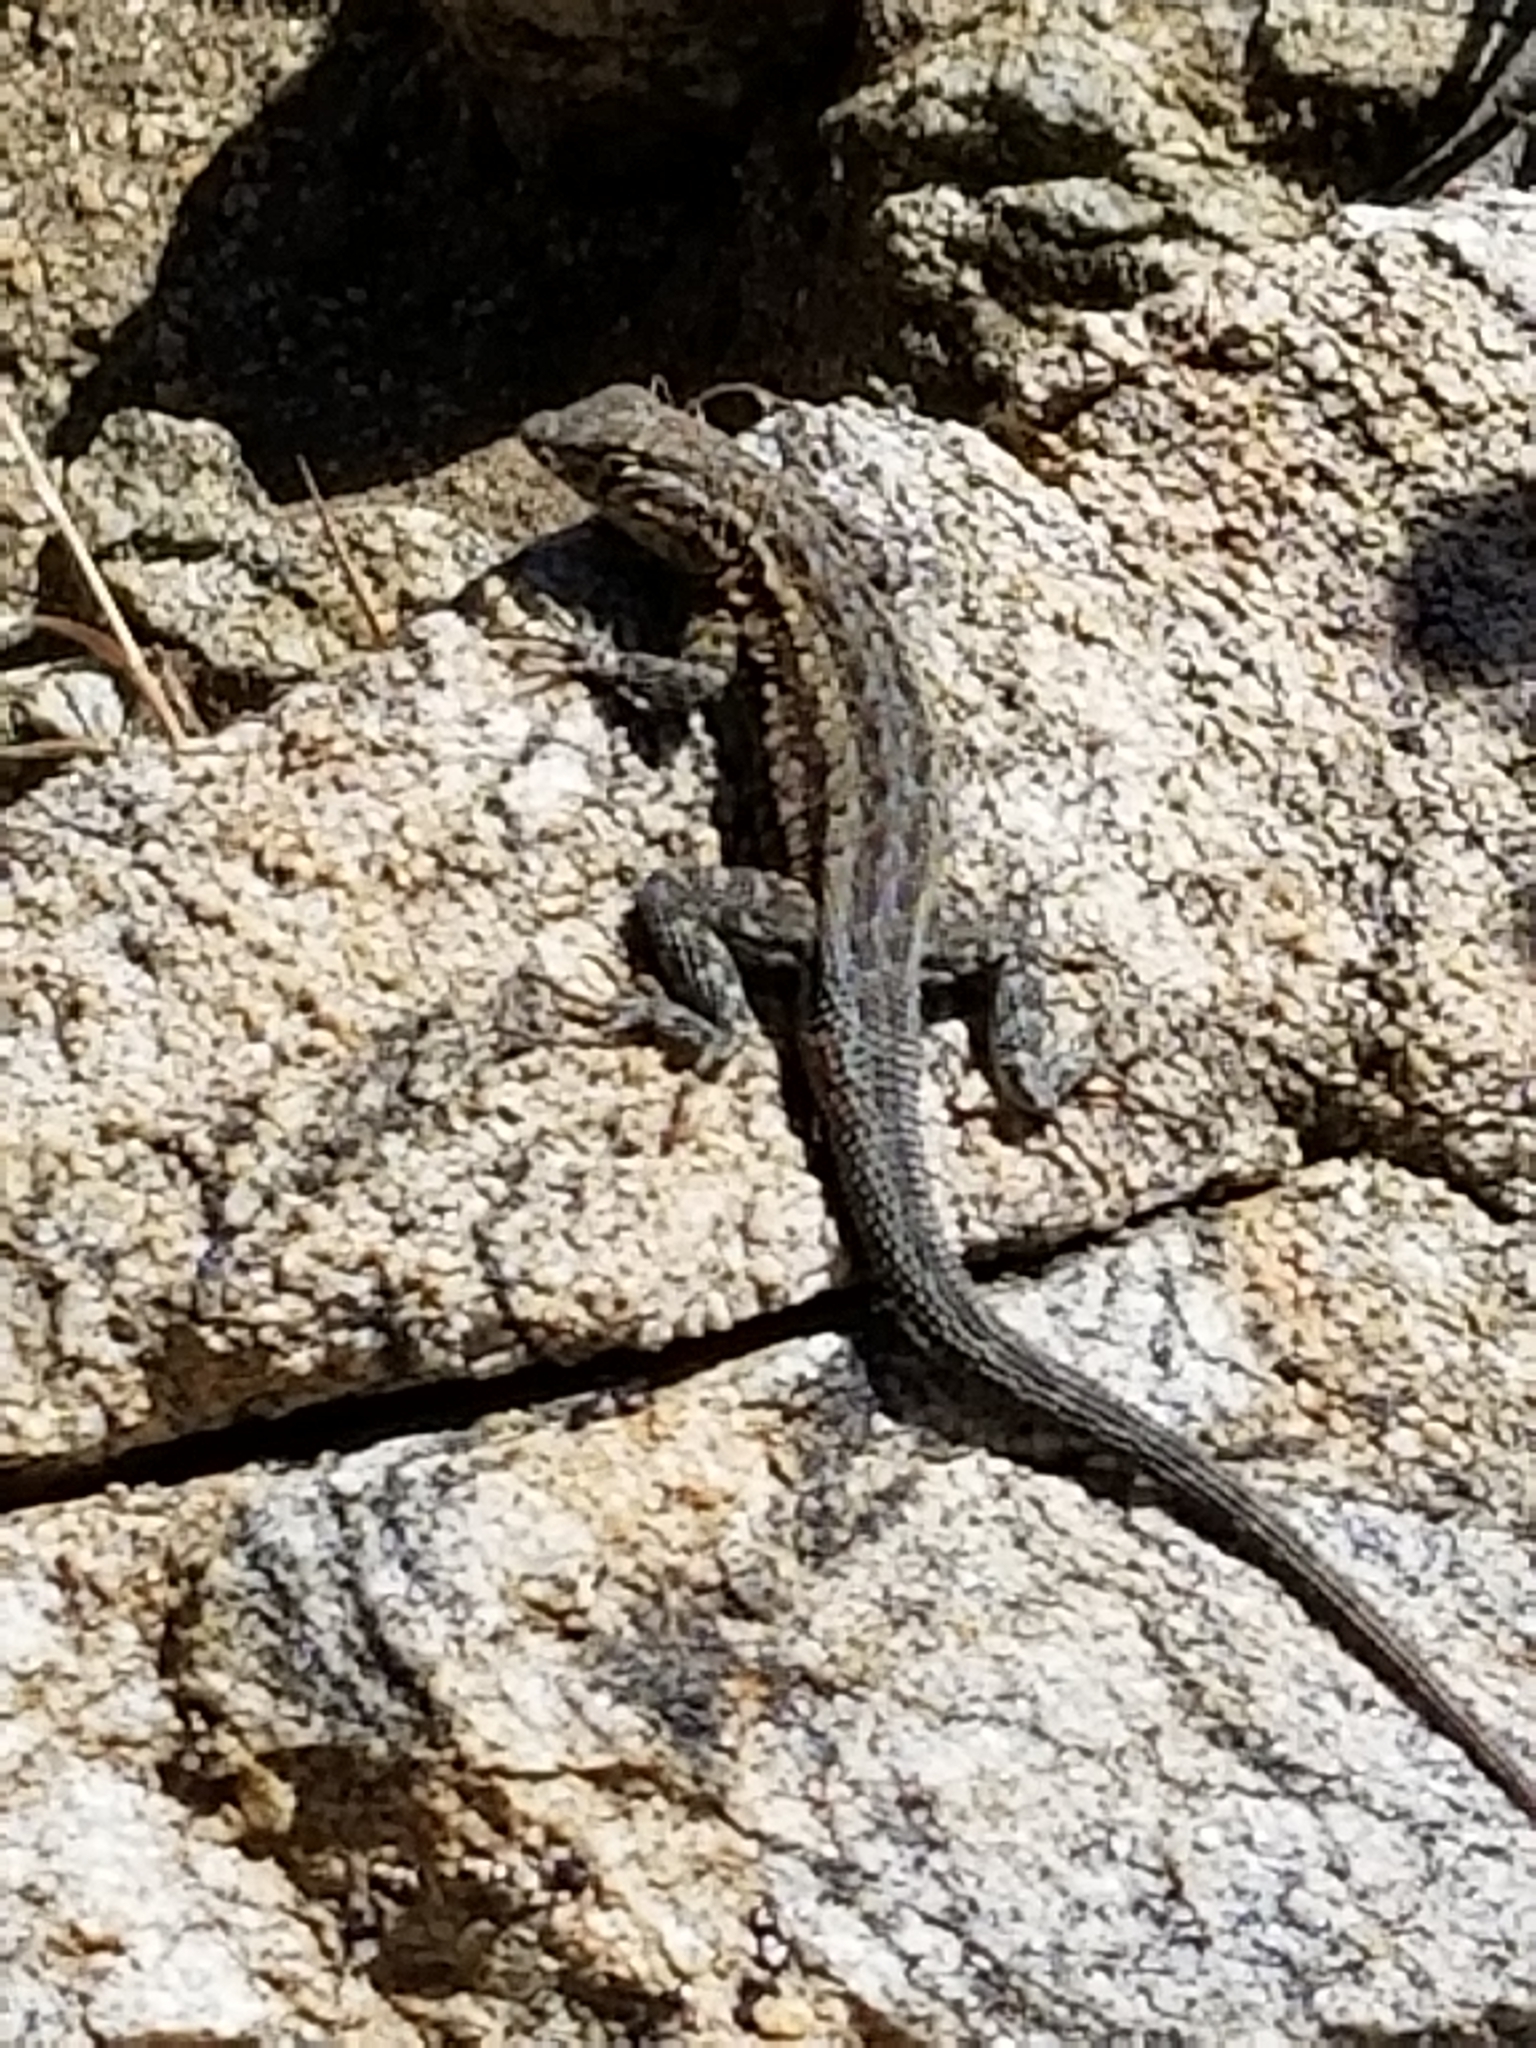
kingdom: Animalia
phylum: Chordata
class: Squamata
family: Phrynosomatidae
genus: Uta
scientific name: Uta stansburiana
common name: Side-blotched lizard
